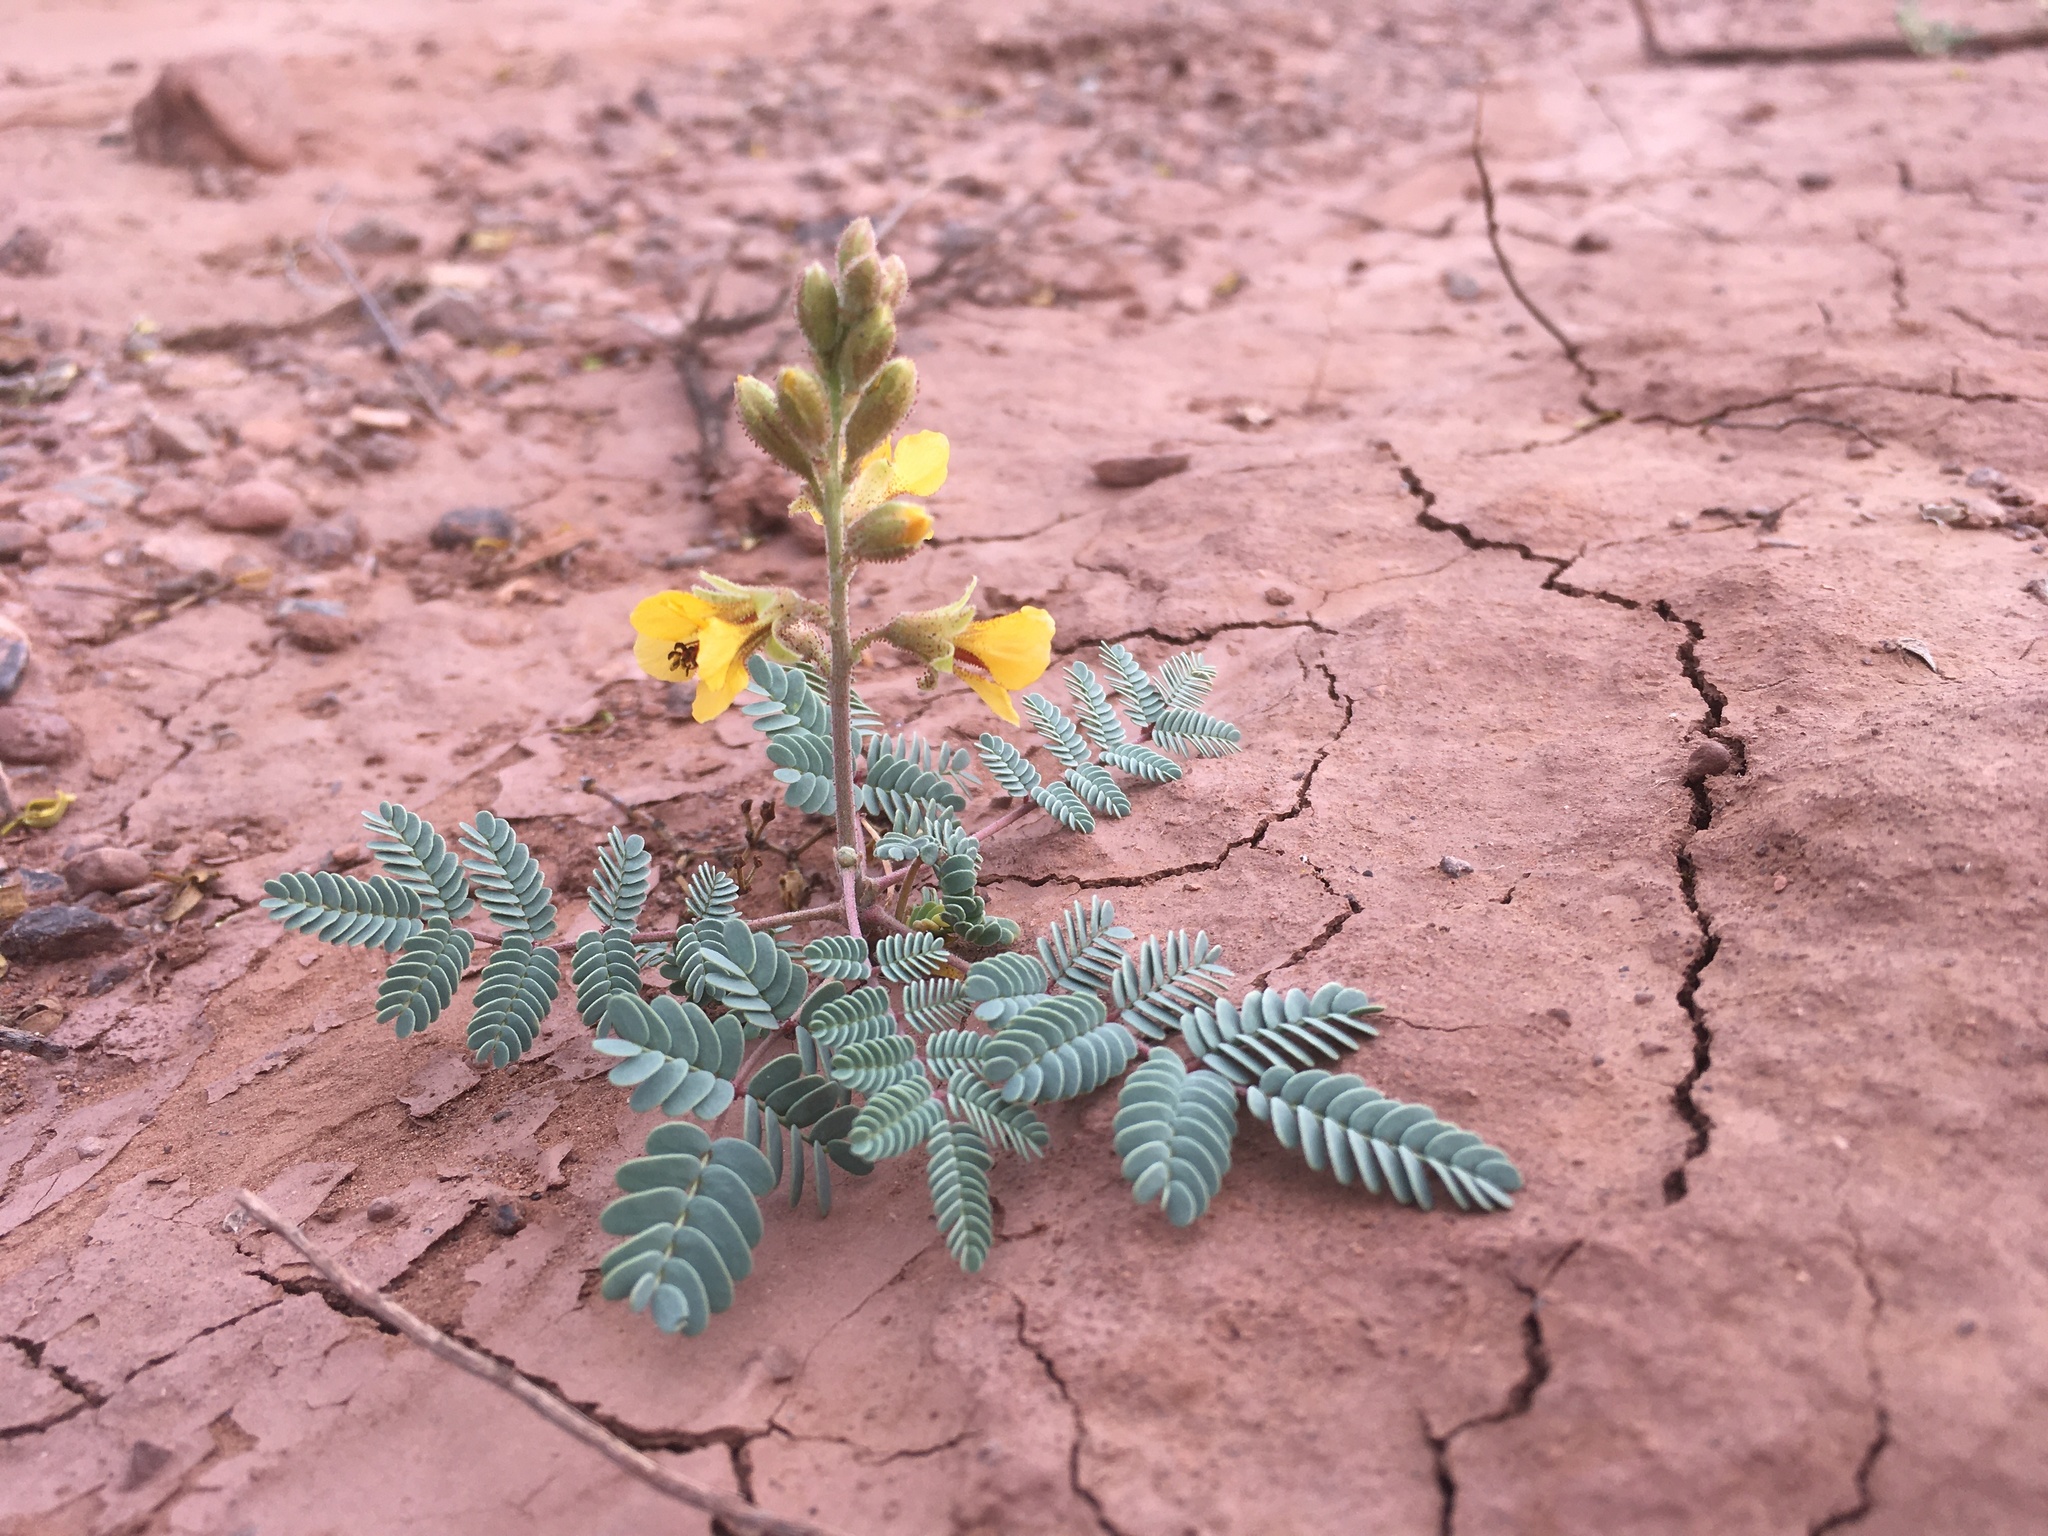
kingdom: Plantae
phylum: Tracheophyta
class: Magnoliopsida
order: Fabales
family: Fabaceae
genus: Hoffmannseggia
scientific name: Hoffmannseggia glauca
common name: Pignut
